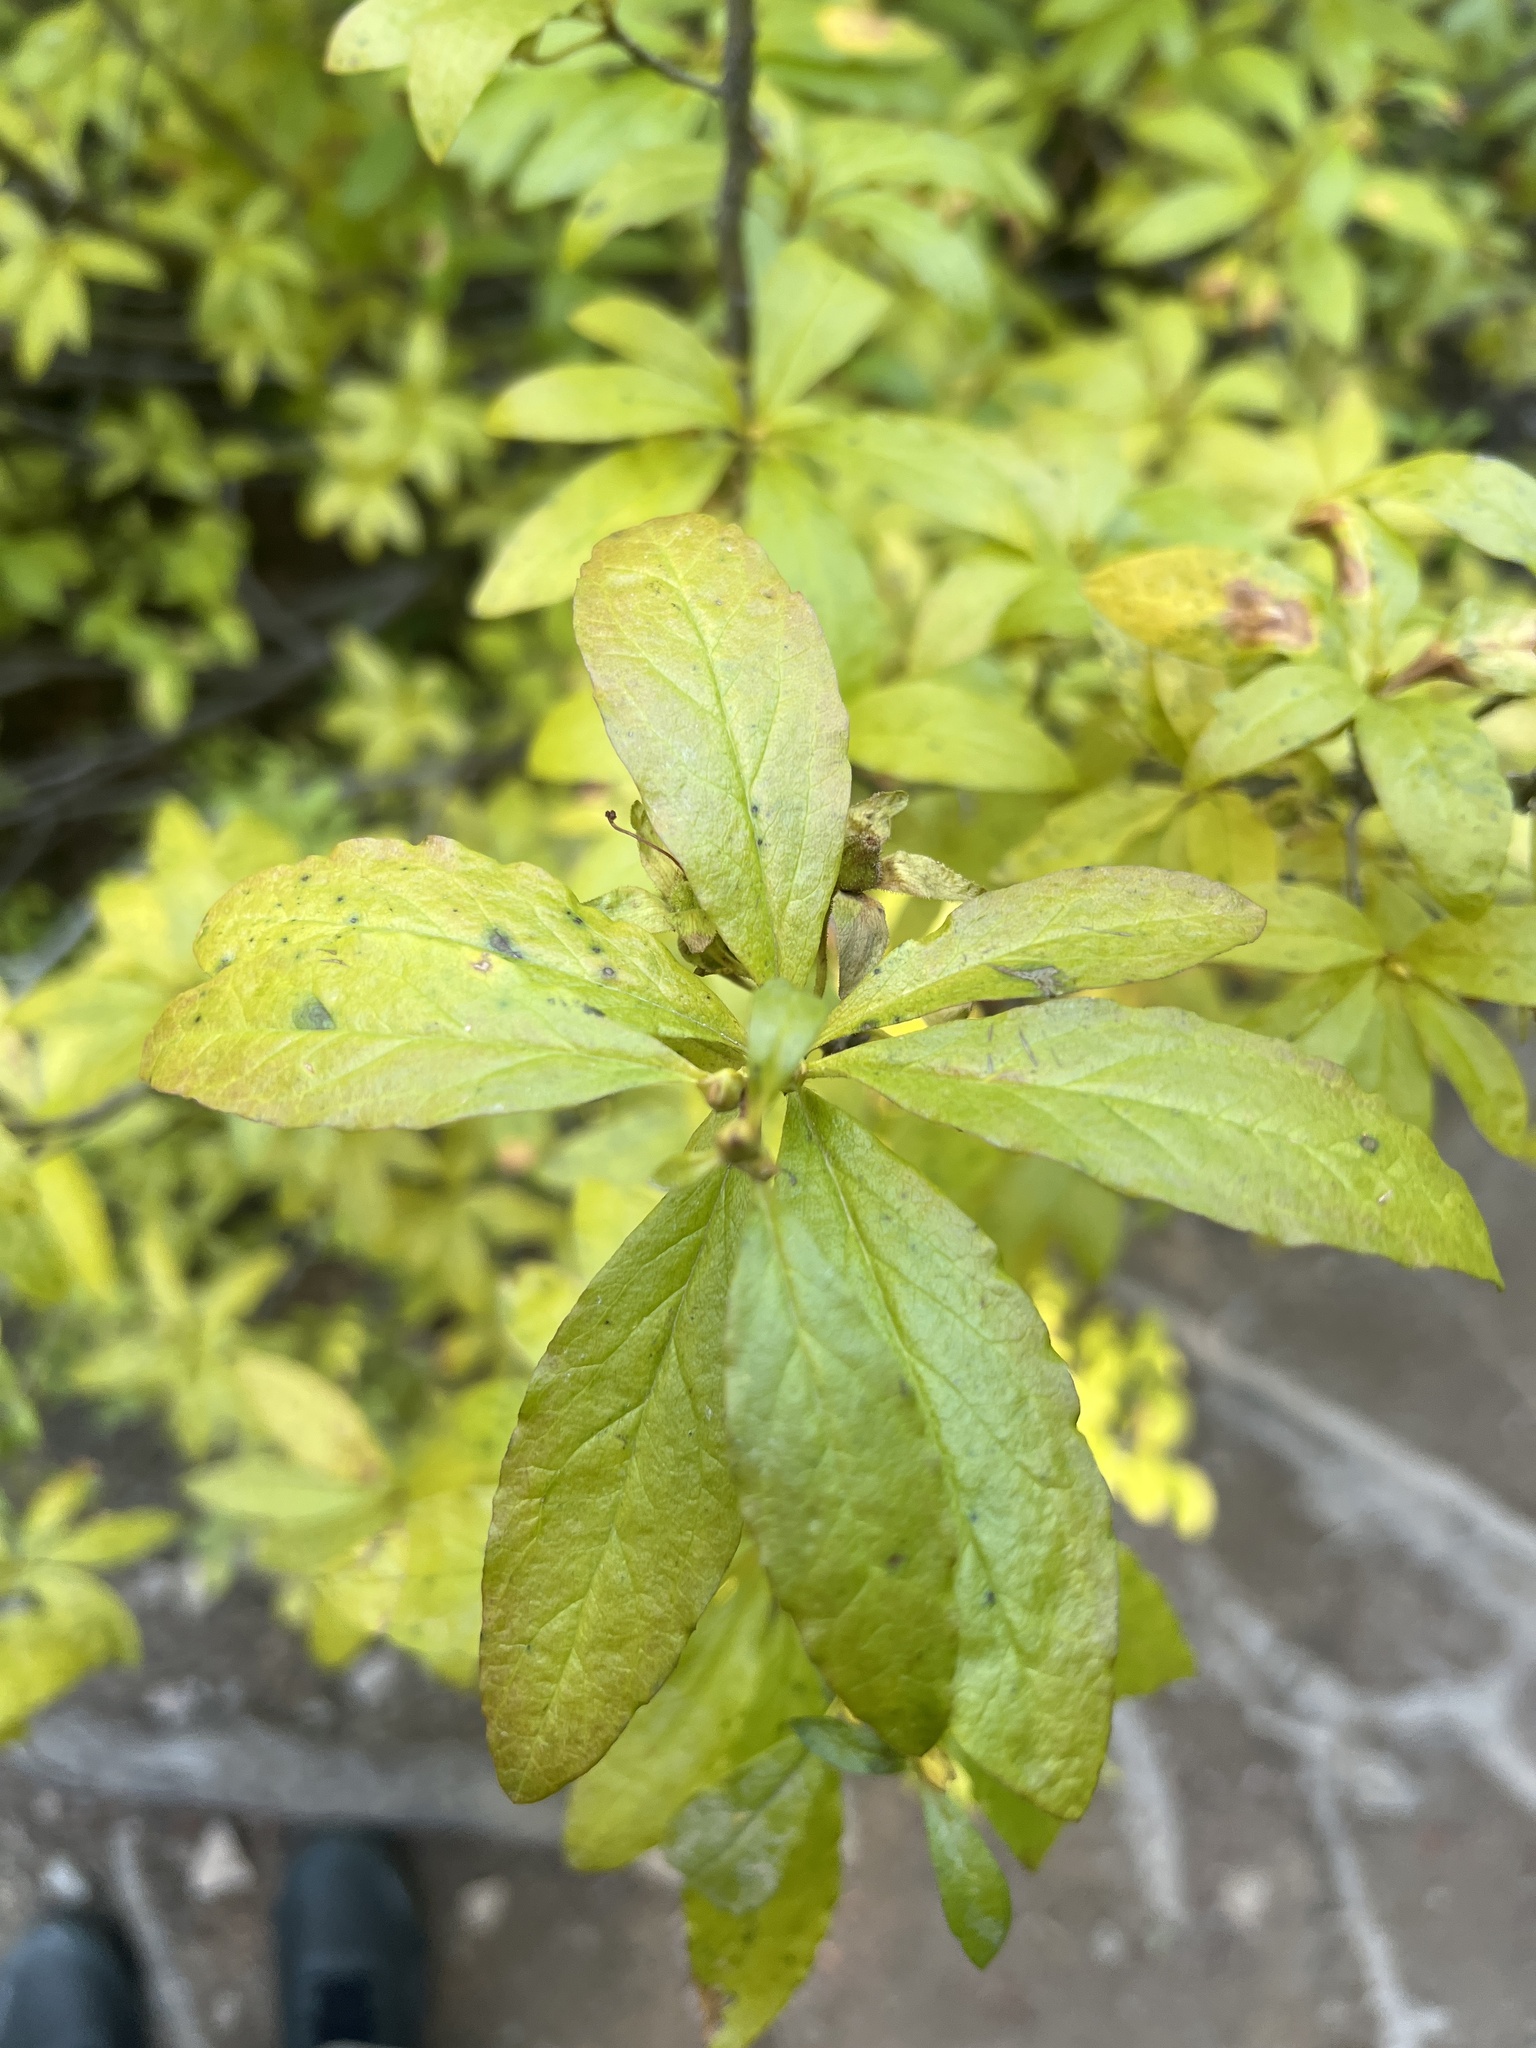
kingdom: Plantae
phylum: Tracheophyta
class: Magnoliopsida
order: Ericales
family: Ericaceae
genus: Rhododendron
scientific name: Rhododendron albiflorum
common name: White rhododendron
